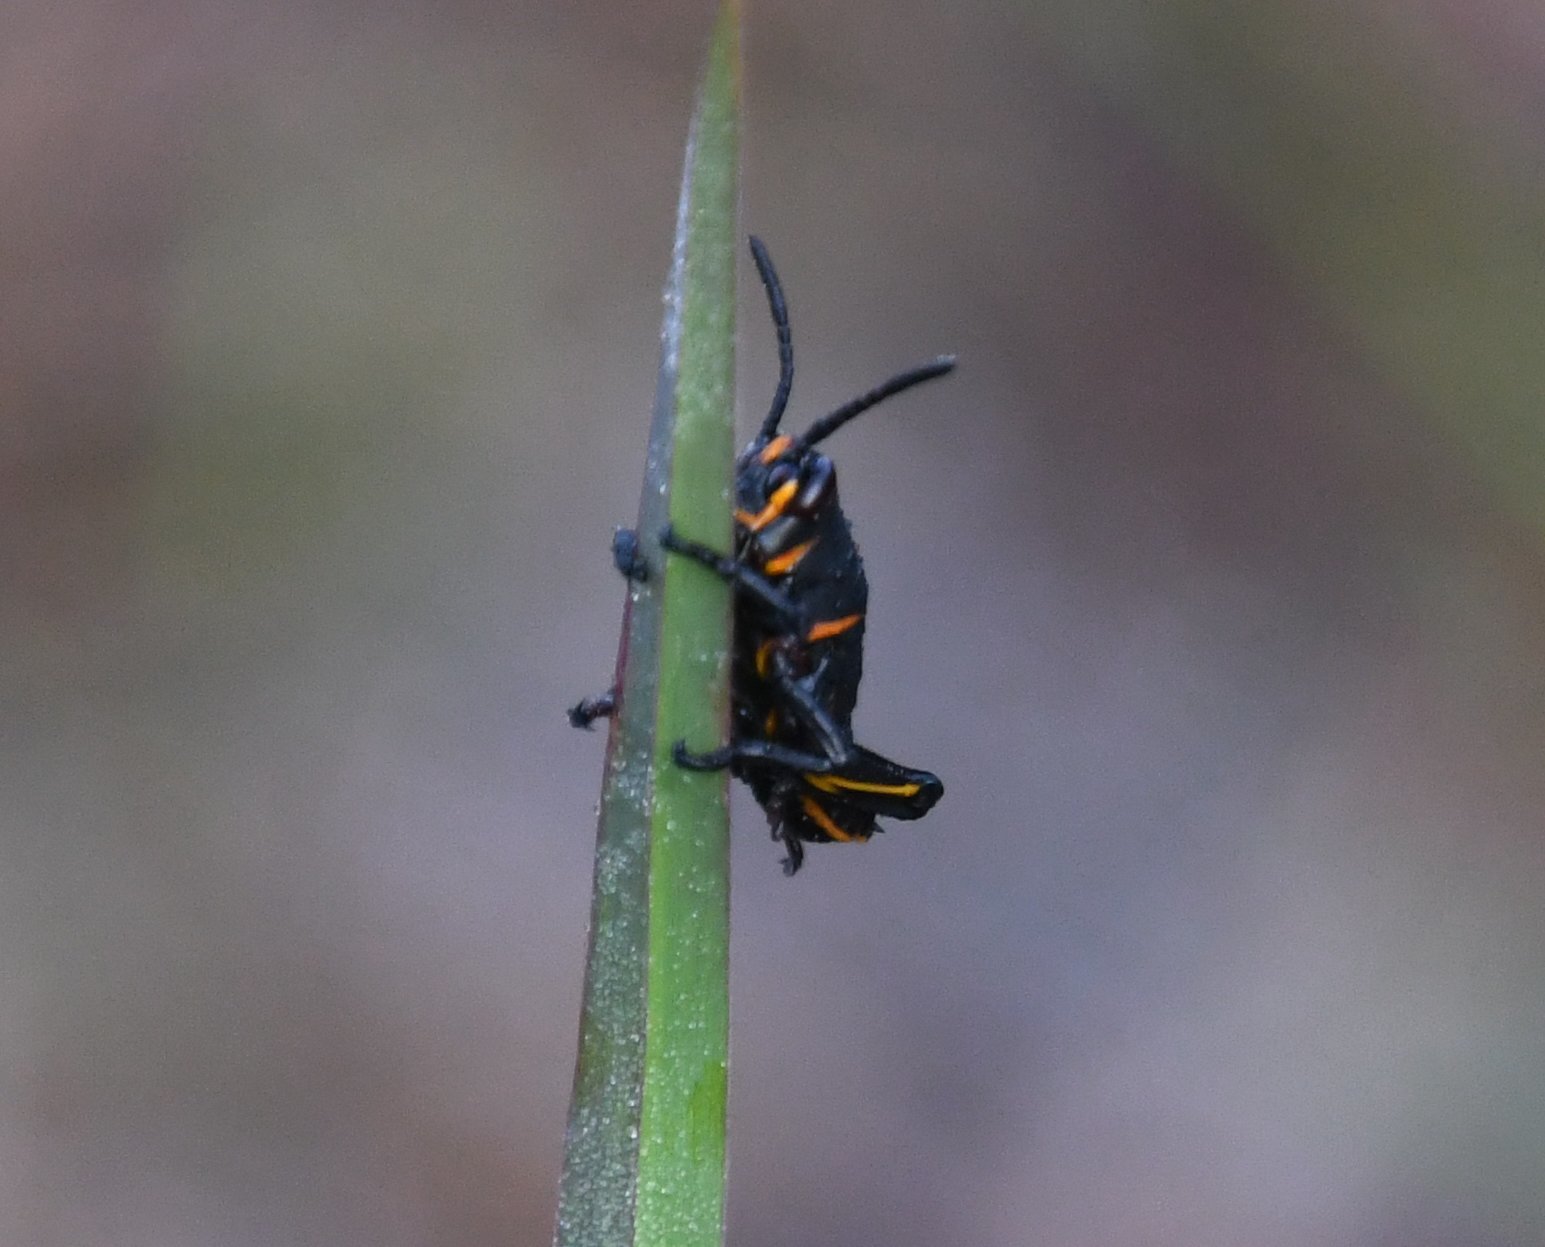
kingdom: Animalia
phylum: Arthropoda
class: Insecta
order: Orthoptera
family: Romaleidae
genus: Romalea
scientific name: Romalea microptera
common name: Eastern lubber grasshopper
